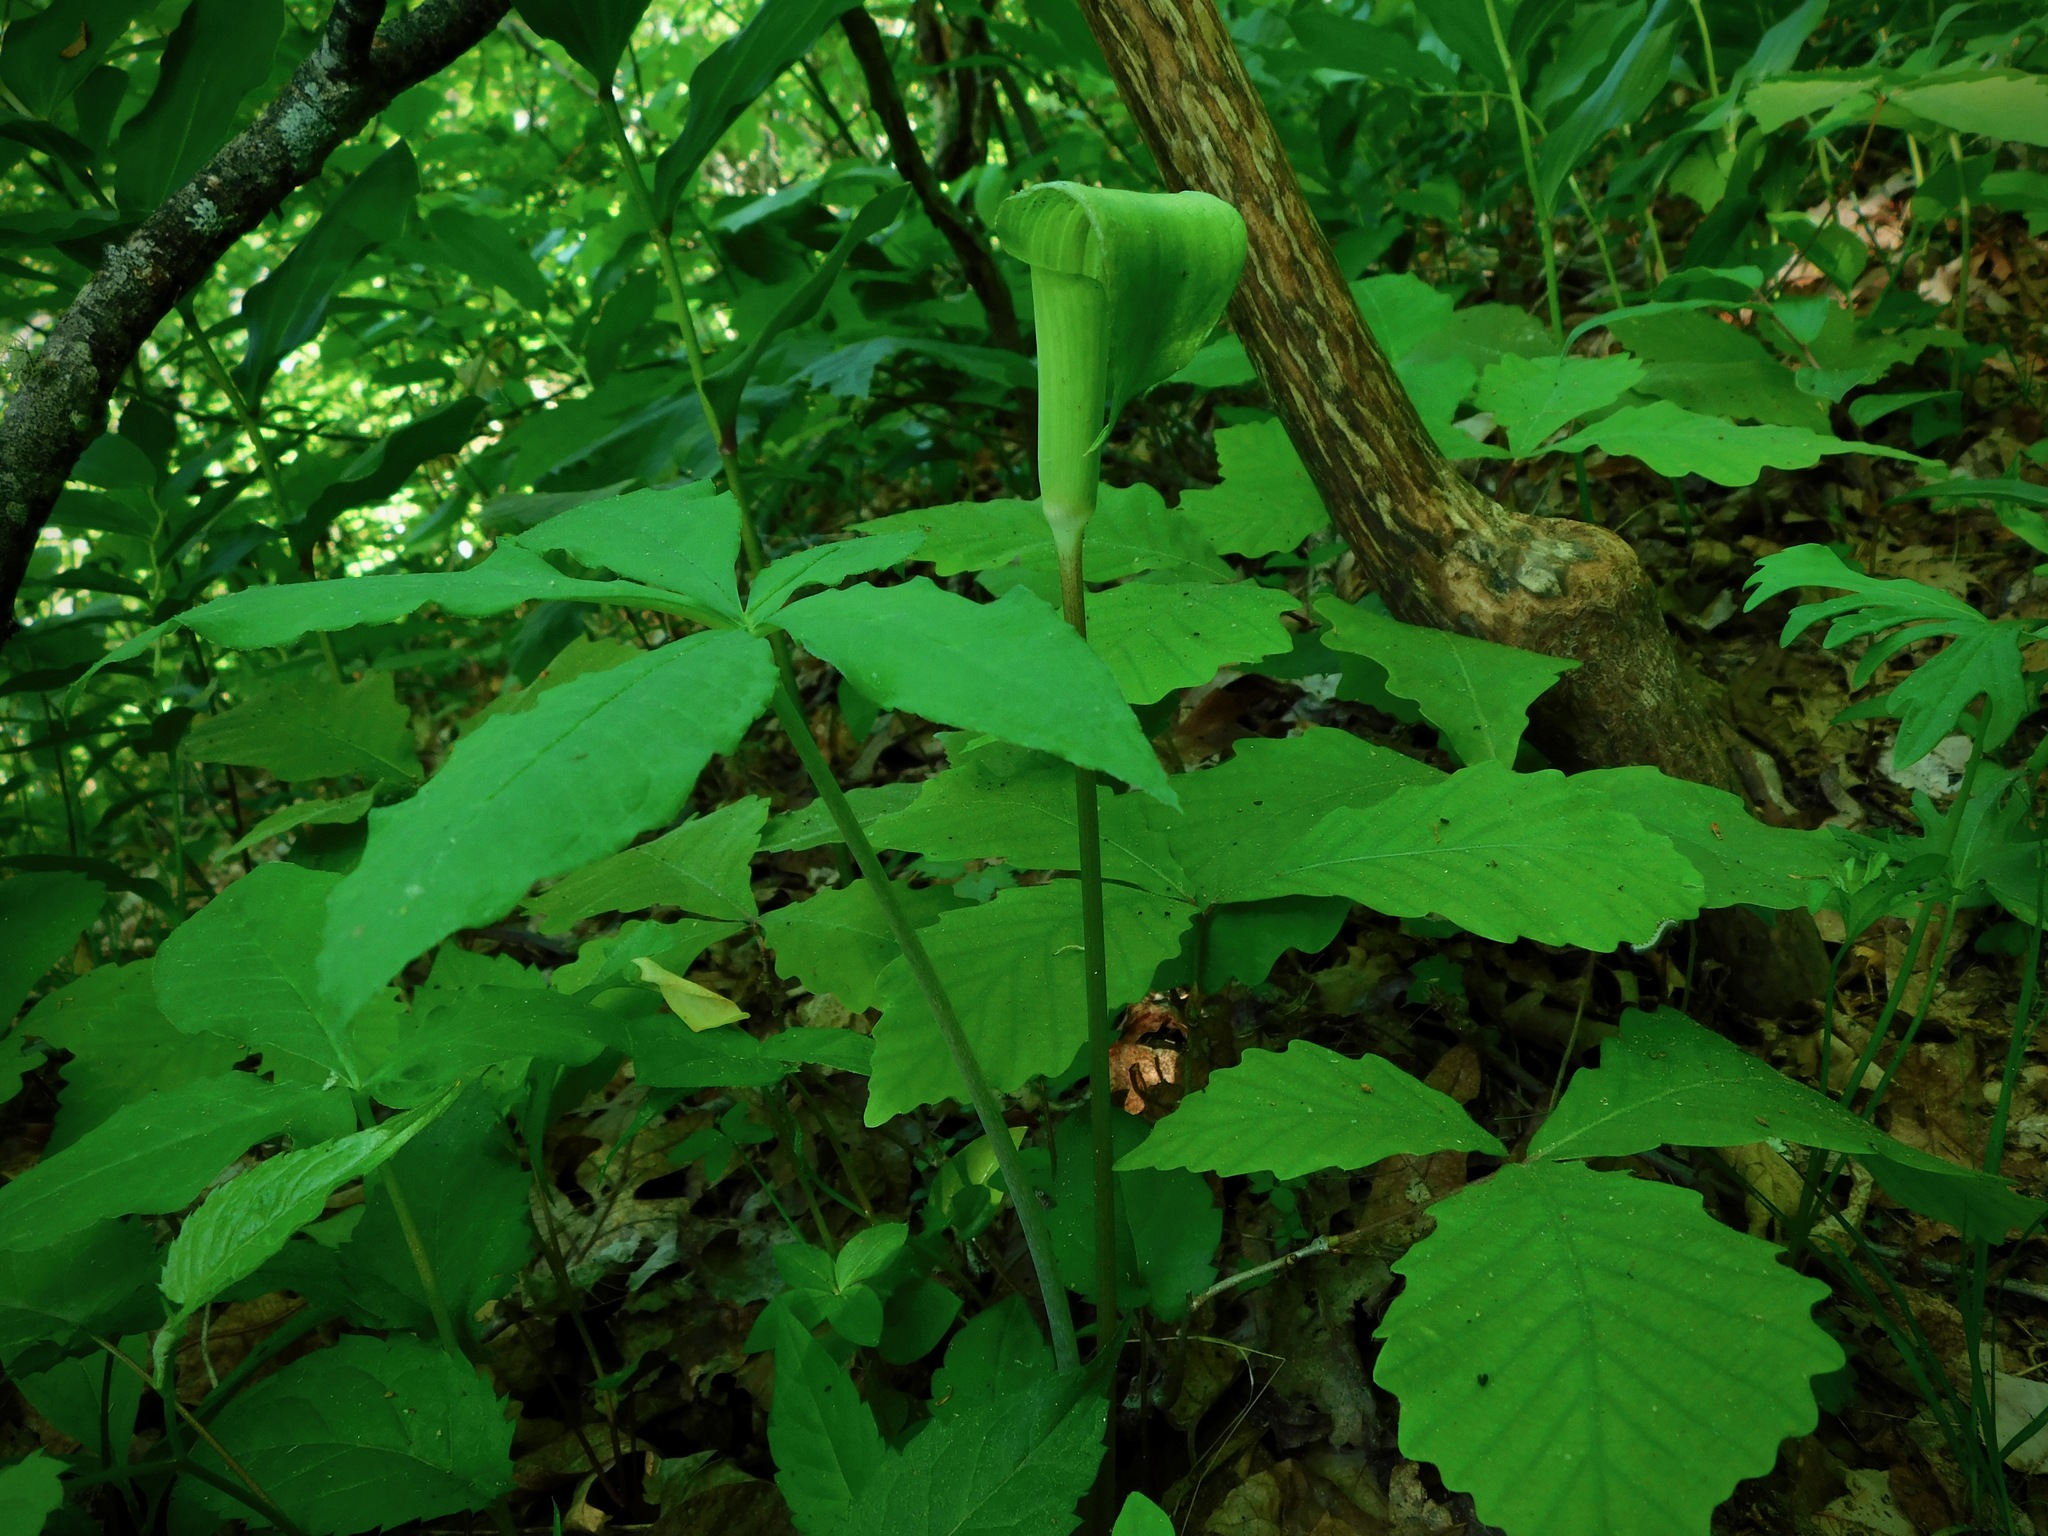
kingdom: Plantae
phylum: Tracheophyta
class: Liliopsida
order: Alismatales
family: Araceae
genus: Arisaema
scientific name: Arisaema quinatum
